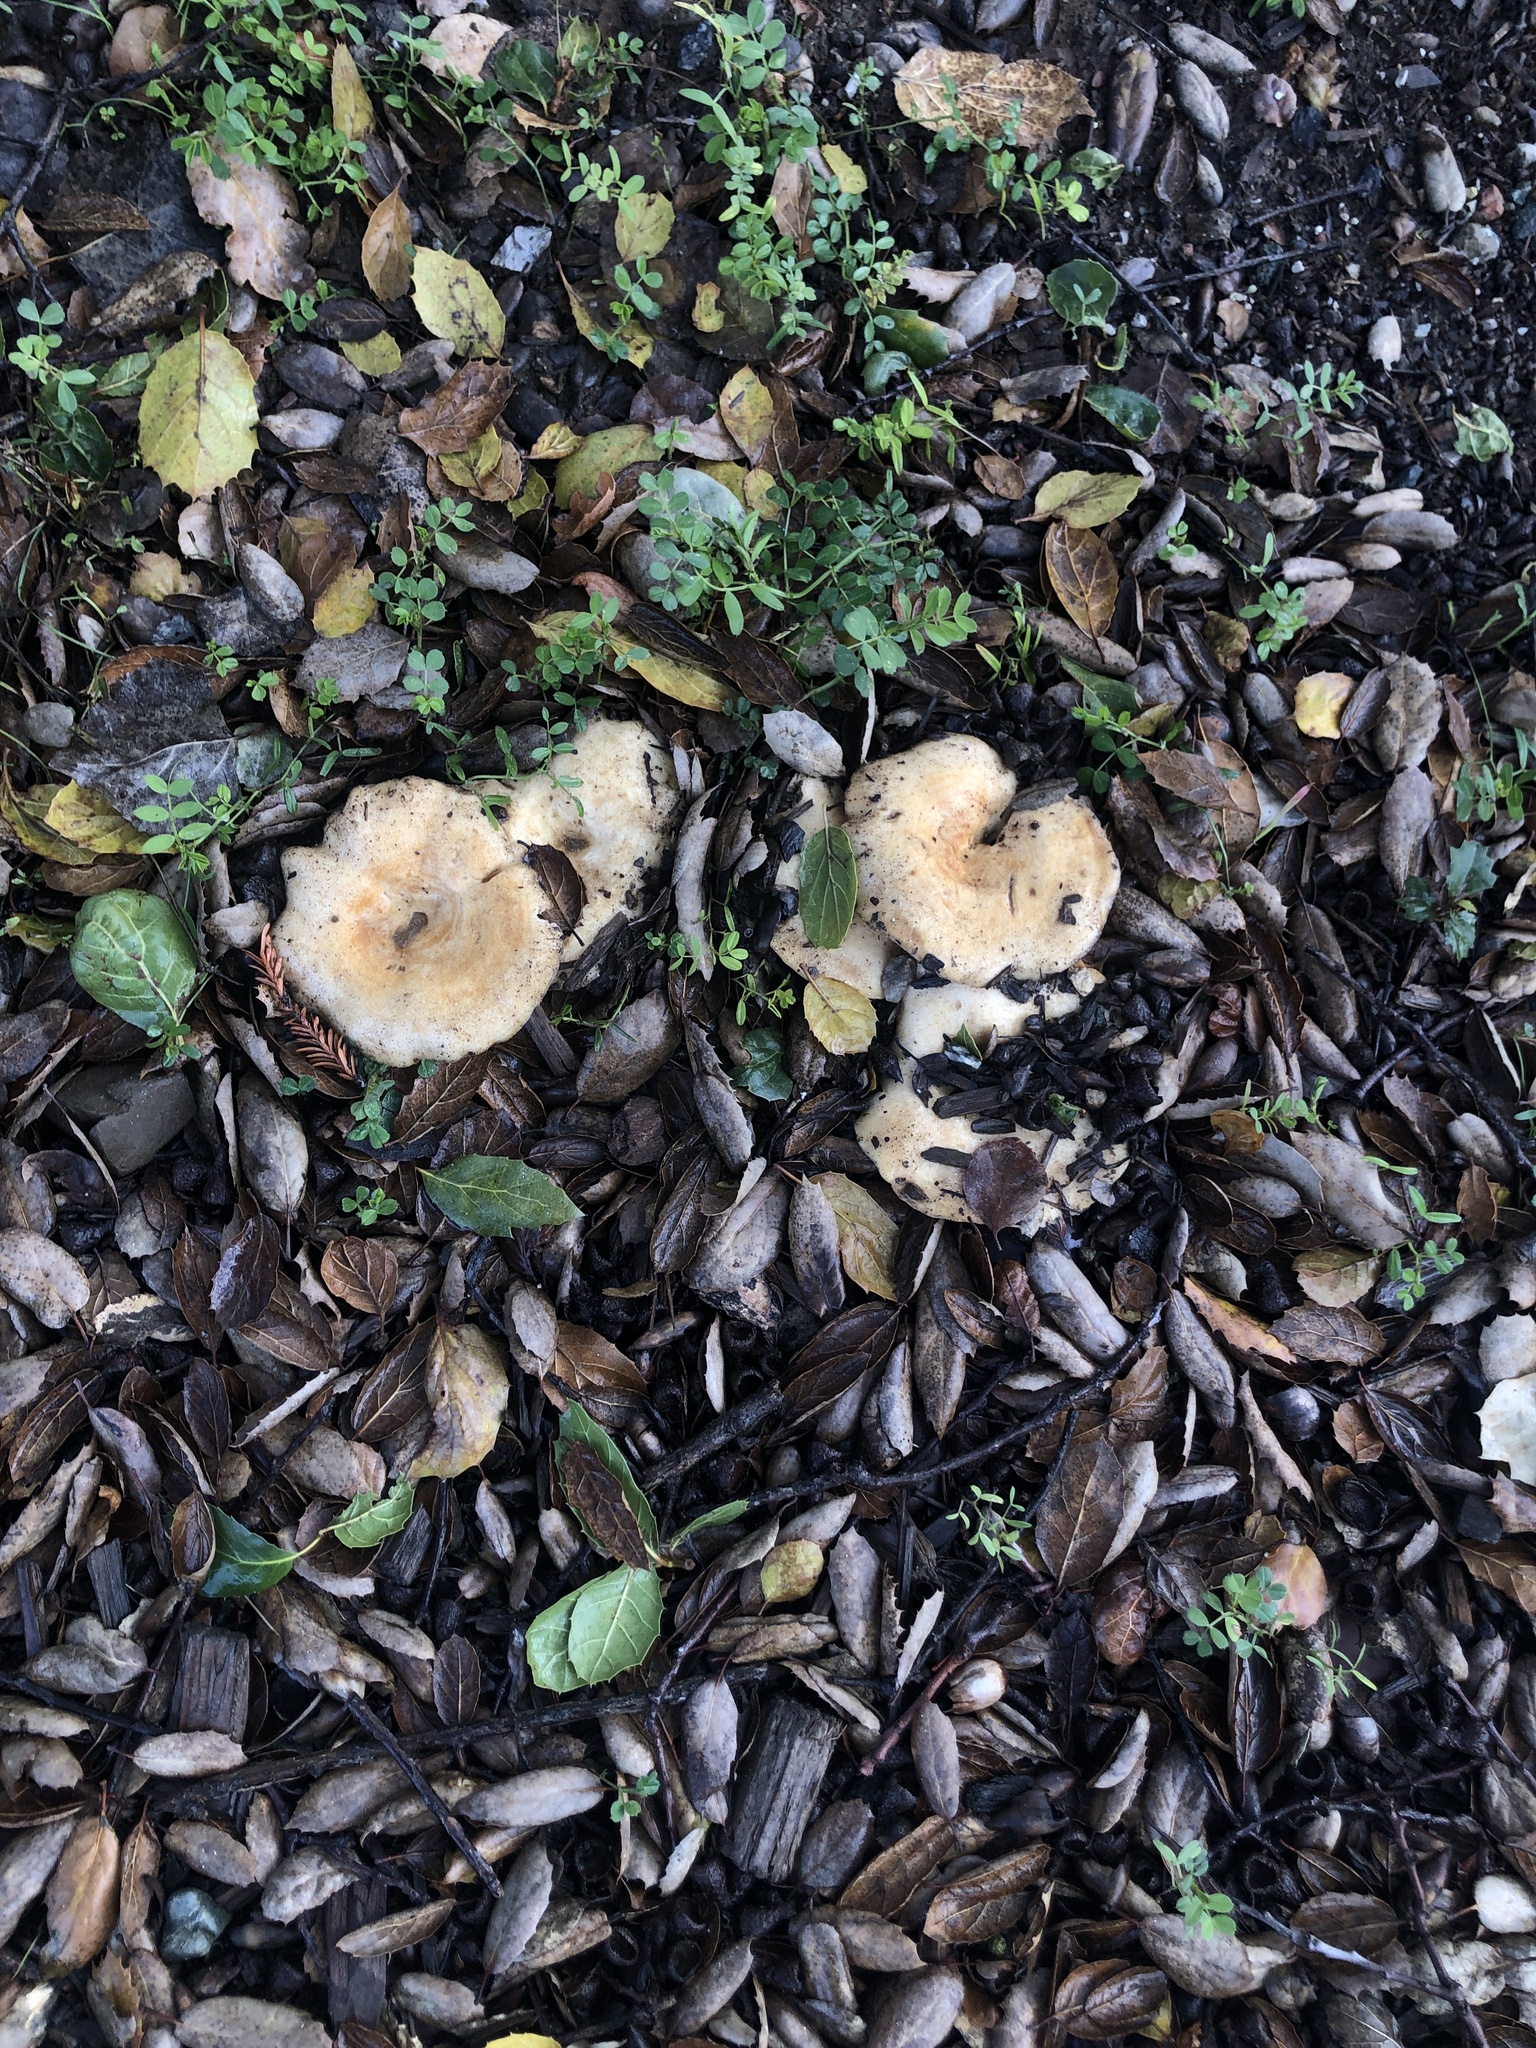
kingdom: Fungi
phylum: Basidiomycota
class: Agaricomycetes
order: Russulales
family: Russulaceae
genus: Lactarius
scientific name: Lactarius alnicola
